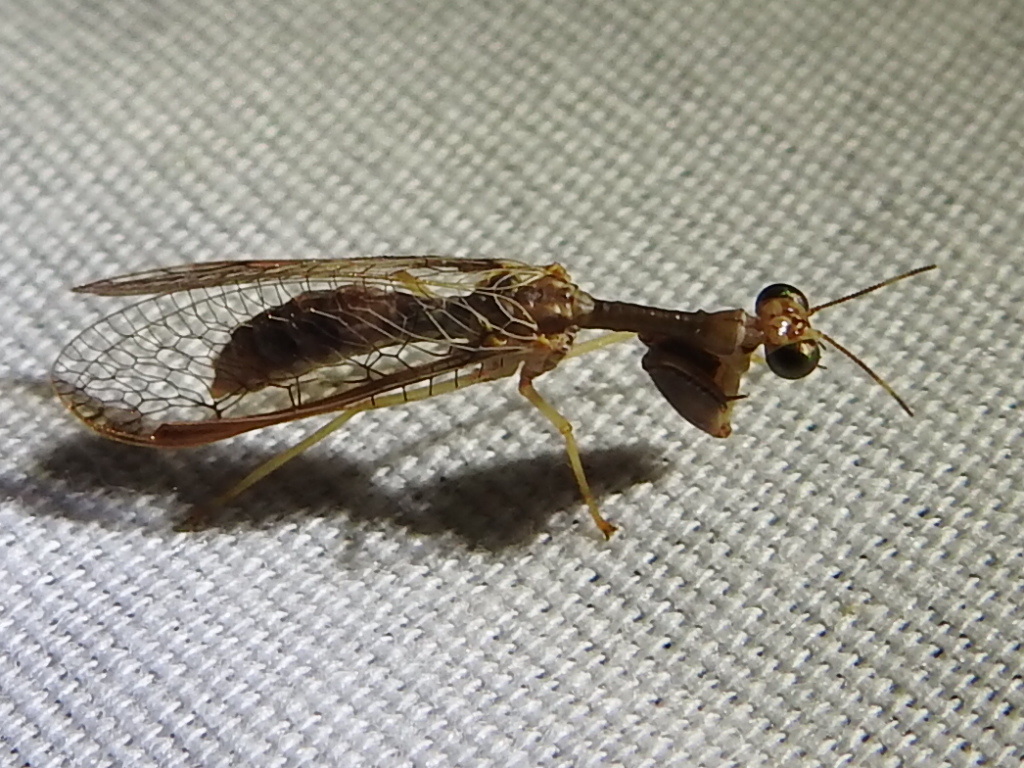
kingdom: Animalia
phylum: Arthropoda
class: Insecta
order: Neuroptera
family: Mantispidae
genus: Dicromantispa
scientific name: Dicromantispa sayi
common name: Say's mantidfly
